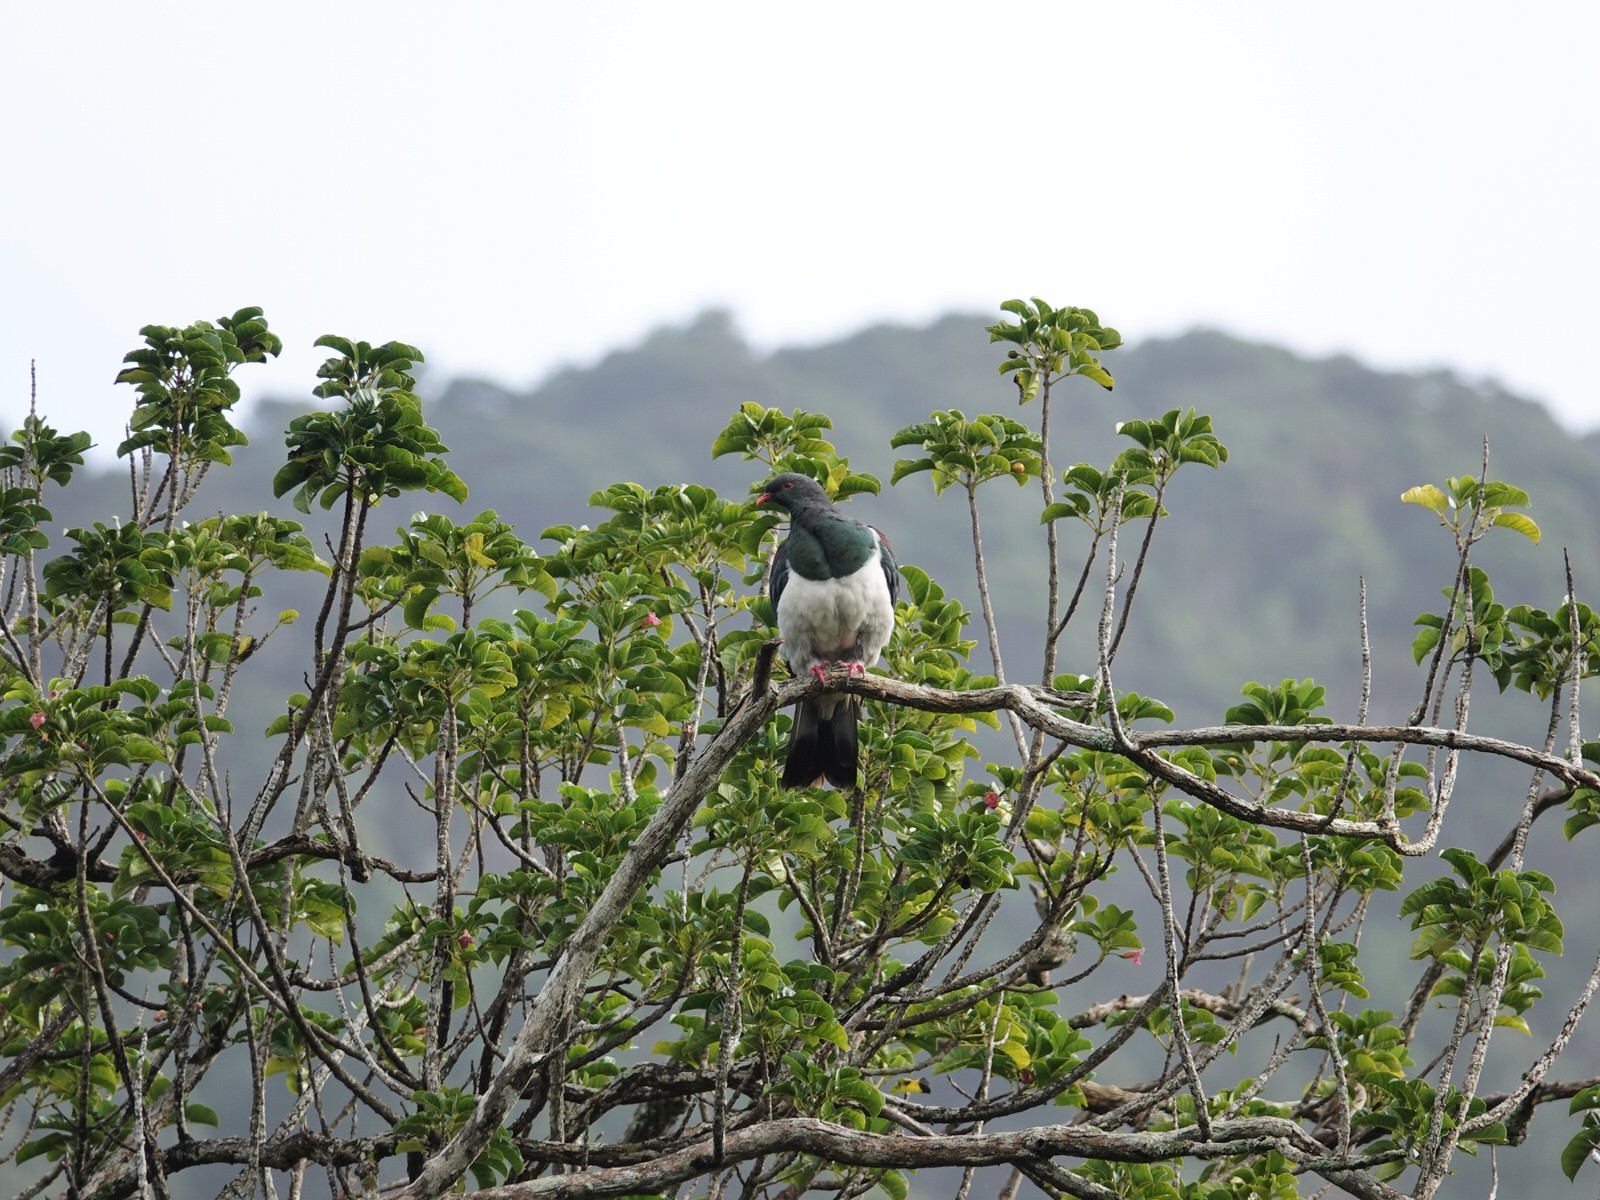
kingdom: Animalia
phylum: Chordata
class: Aves
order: Columbiformes
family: Columbidae
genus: Hemiphaga
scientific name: Hemiphaga novaeseelandiae
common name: New zealand pigeon
